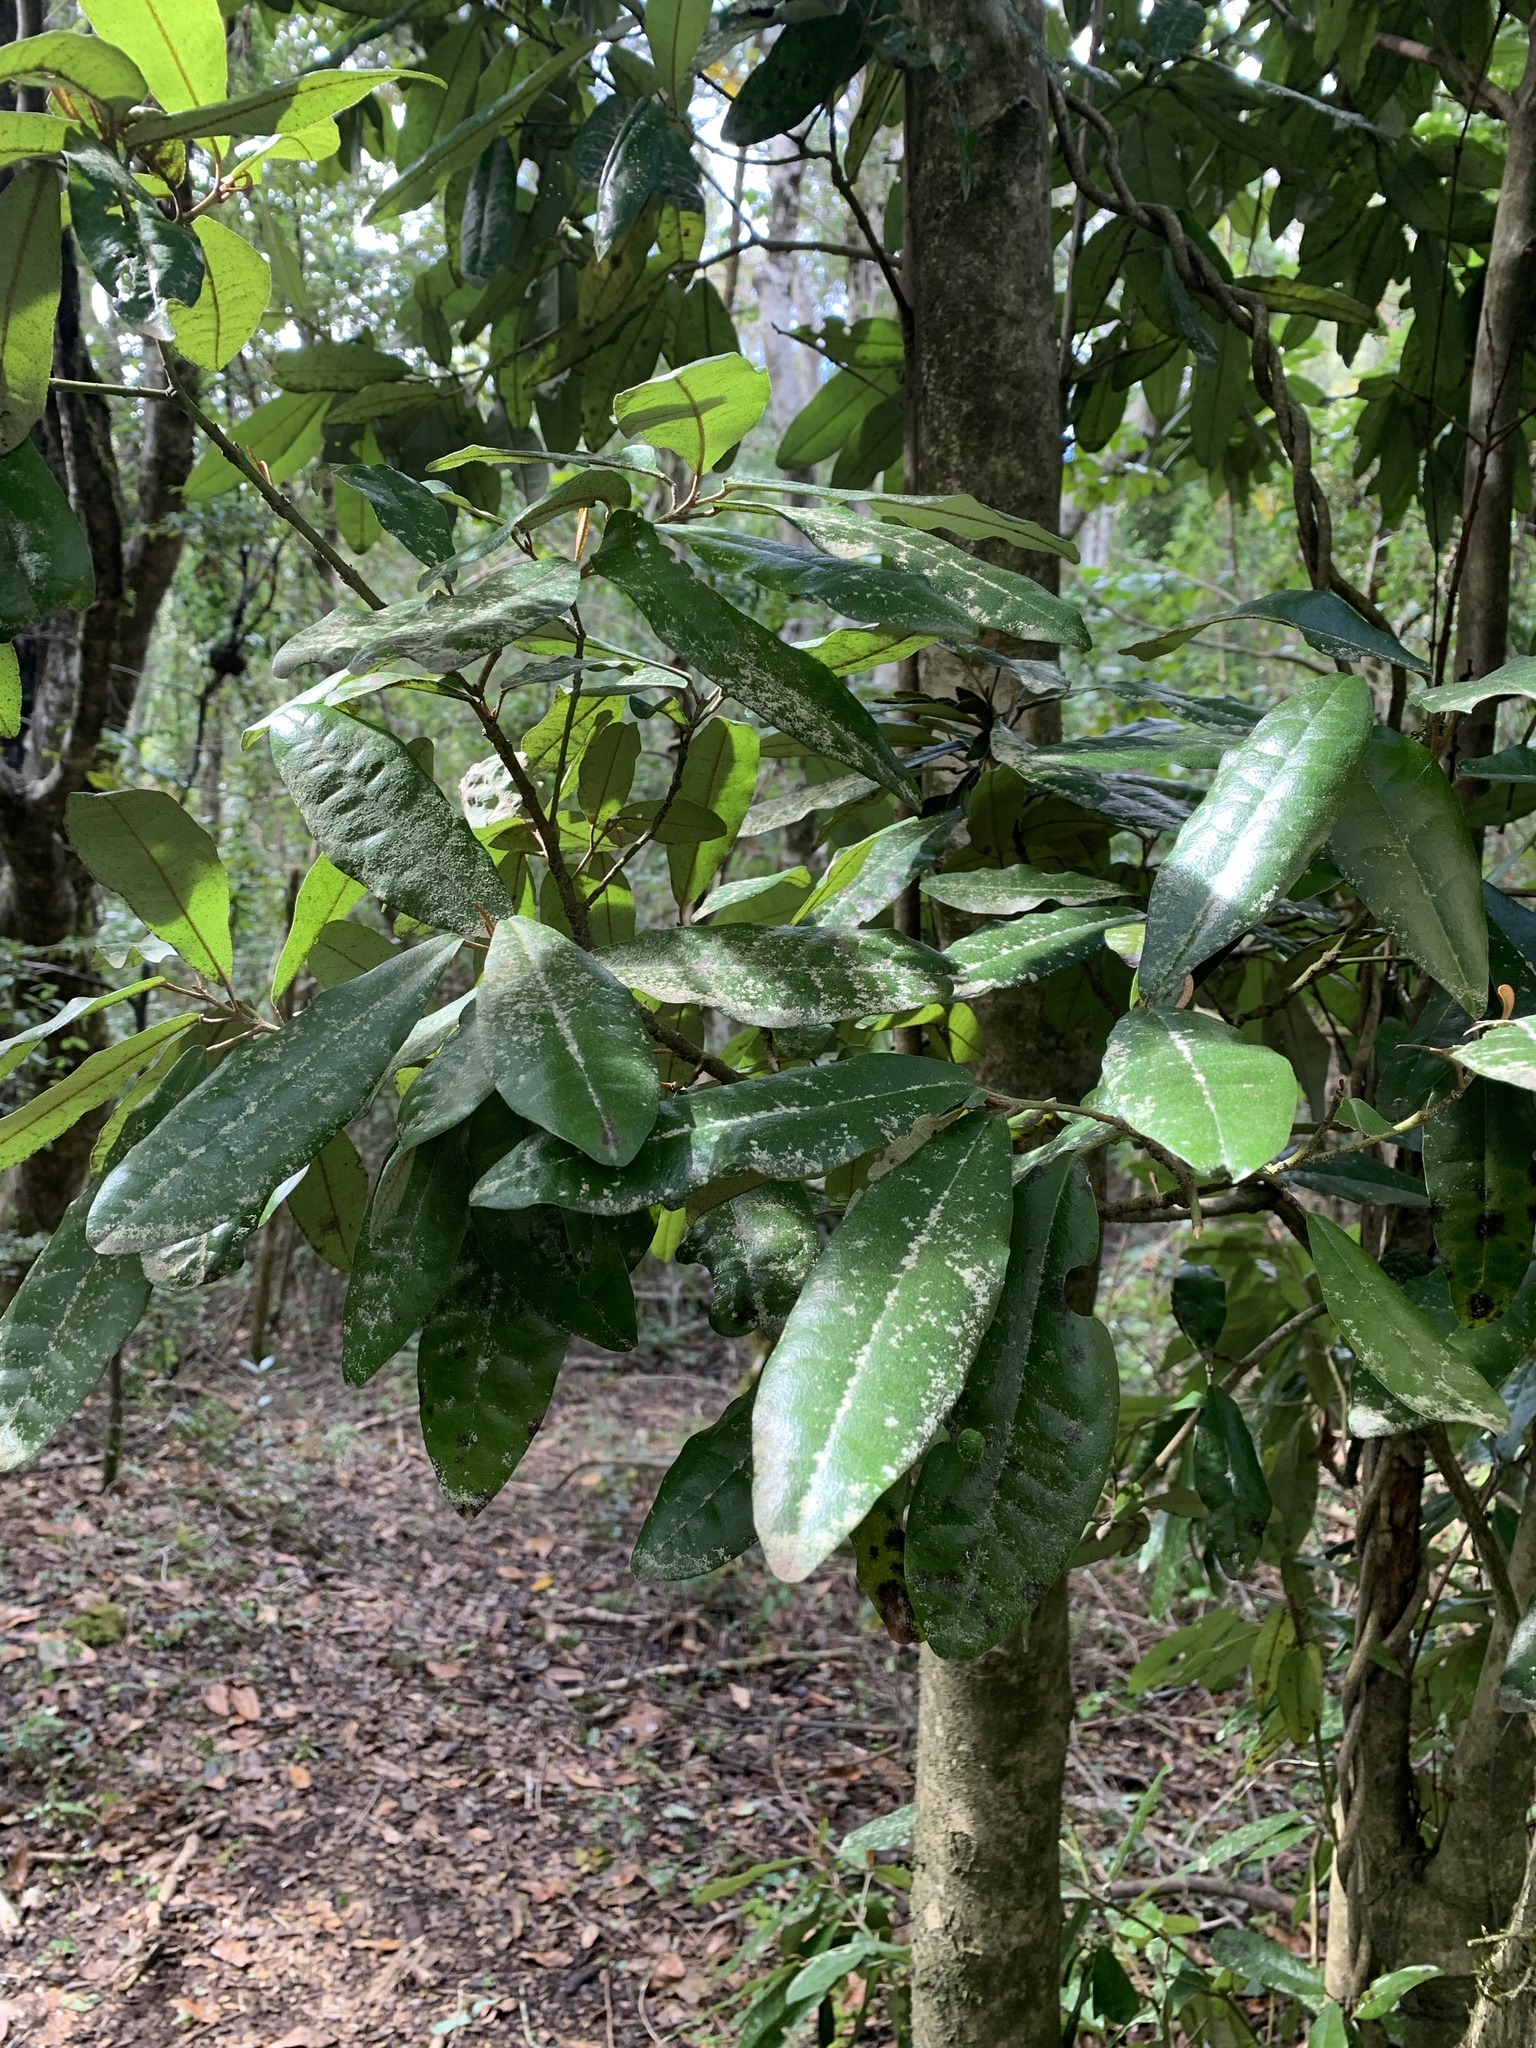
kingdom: Plantae
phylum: Tracheophyta
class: Magnoliopsida
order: Berberidopsidales
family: Aextoxicaceae
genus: Aextoxicon
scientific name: Aextoxicon punctatum
